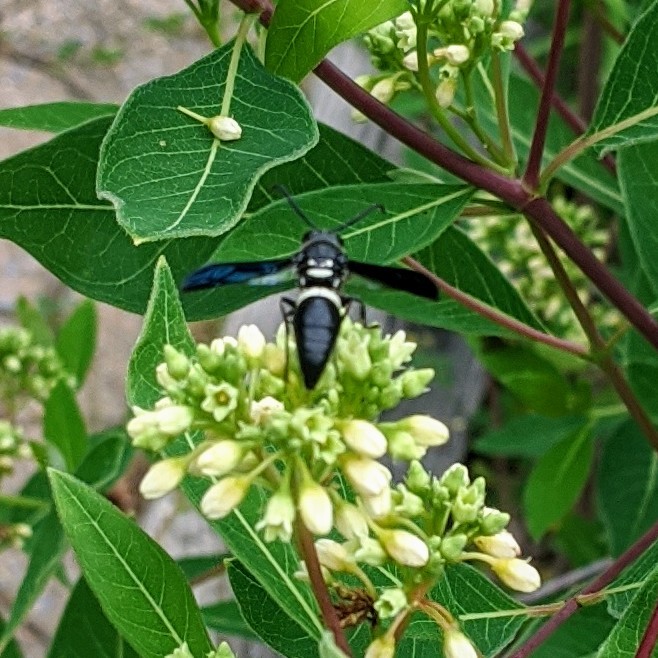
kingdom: Animalia
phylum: Arthropoda
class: Insecta
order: Hymenoptera
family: Eumenidae
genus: Monobia
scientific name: Monobia quadridens
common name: Four-toothed mason wasp
